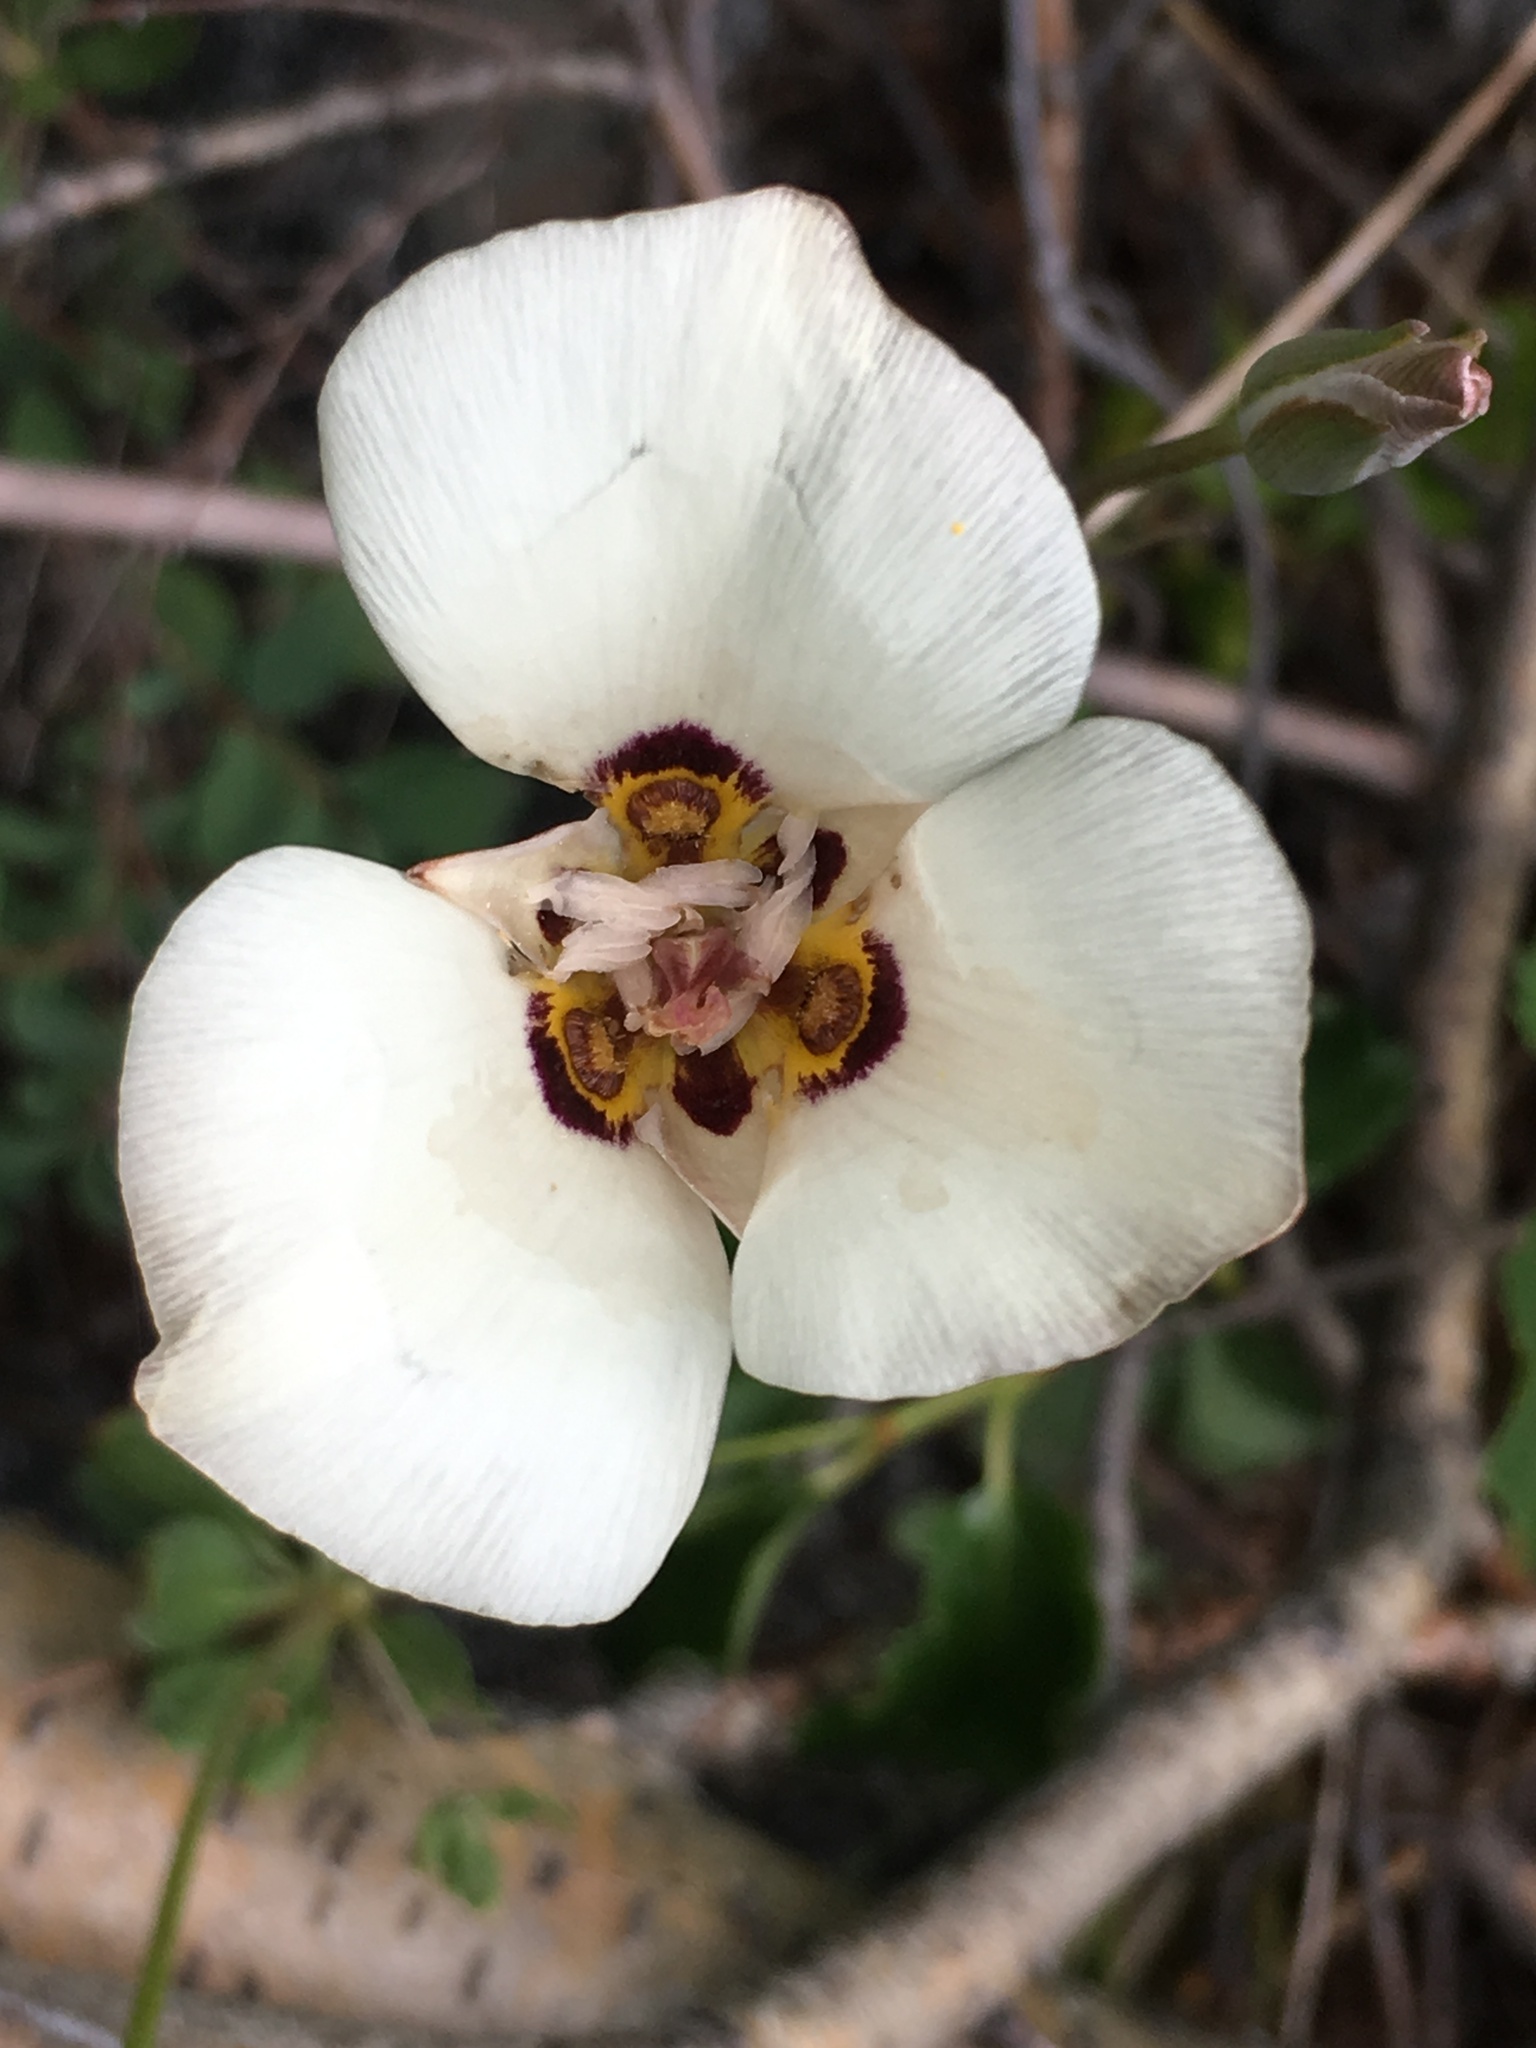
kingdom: Plantae
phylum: Tracheophyta
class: Liliopsida
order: Liliales
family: Liliaceae
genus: Calochortus
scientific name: Calochortus bruneaunis
